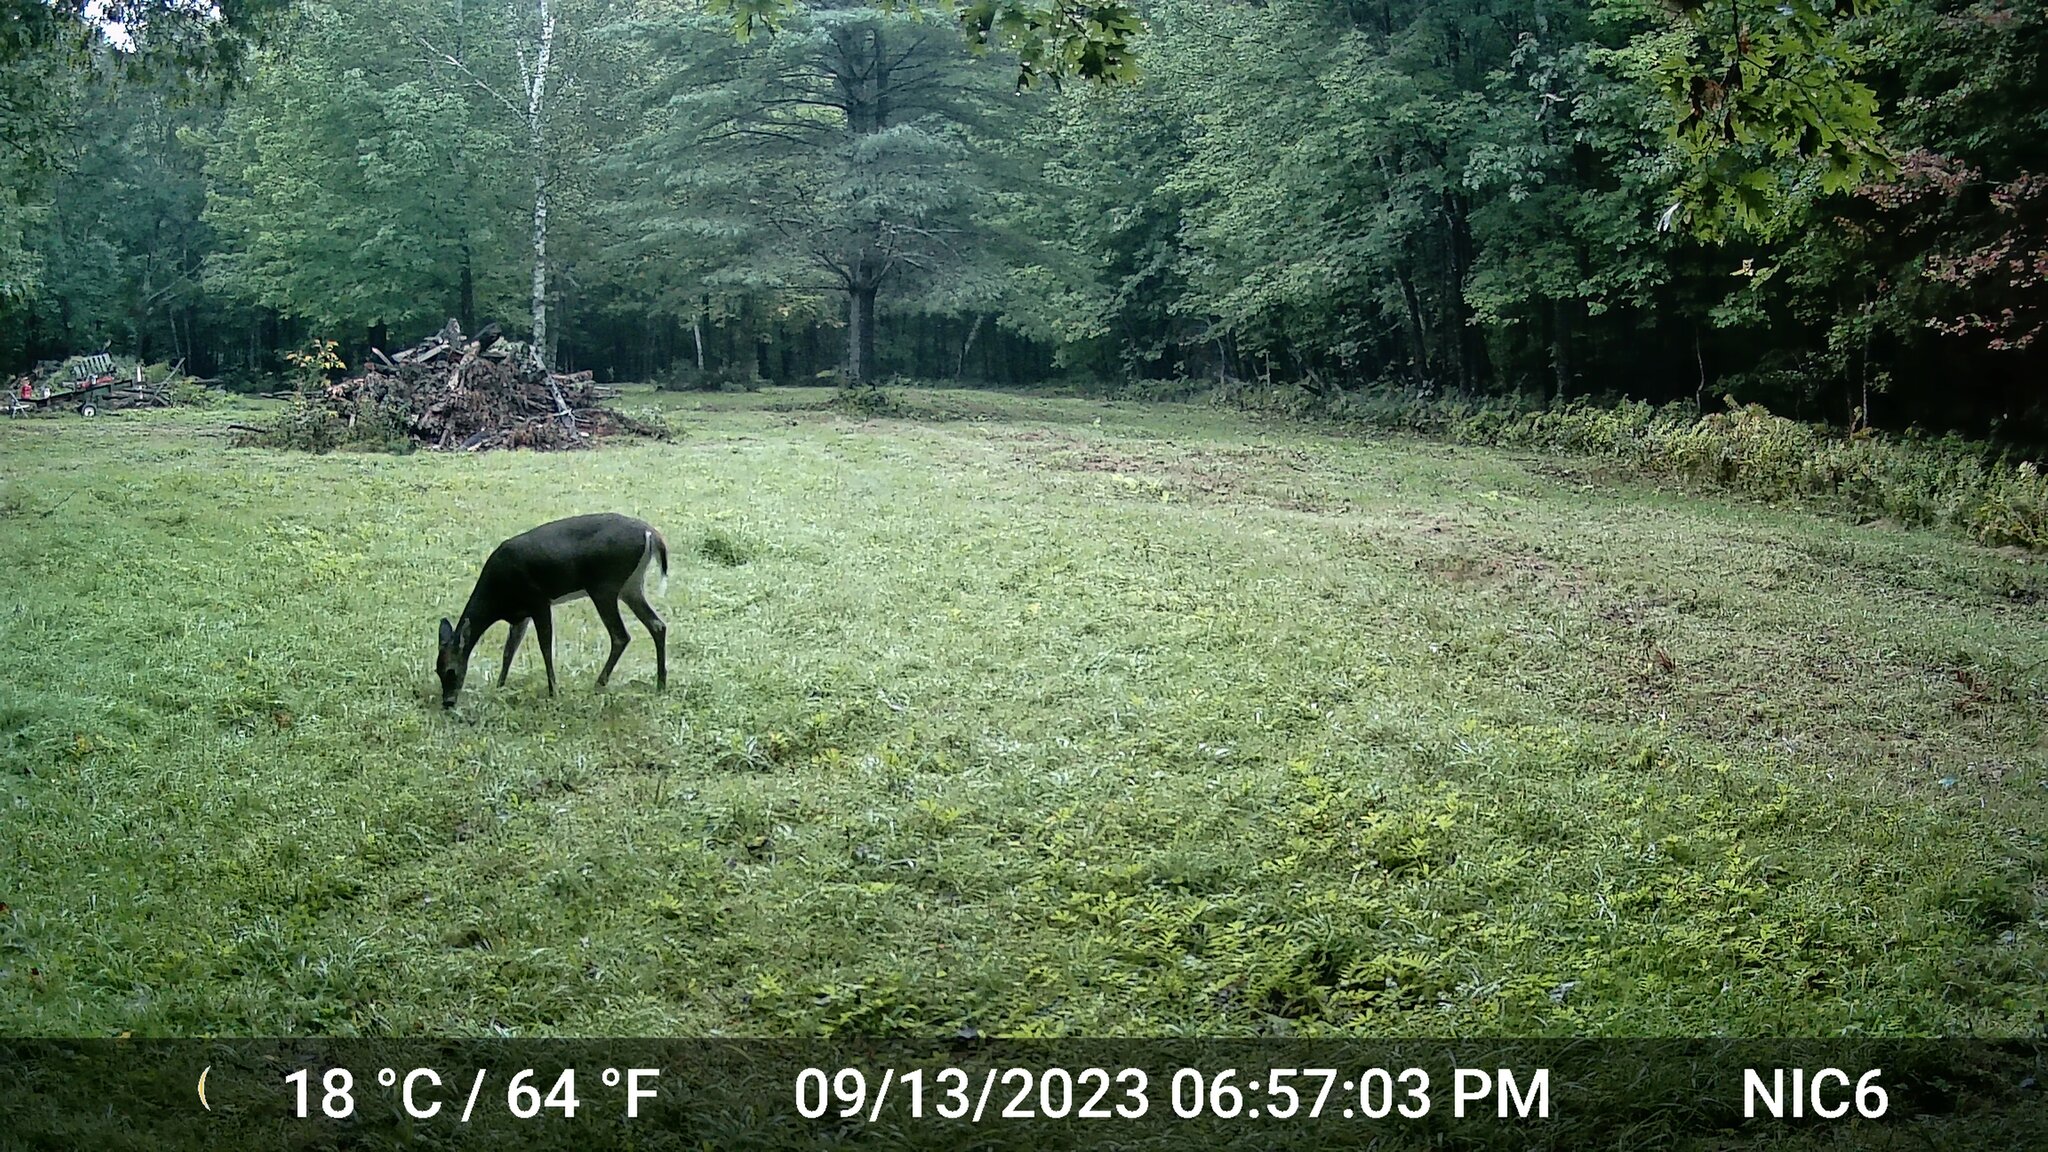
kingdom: Animalia
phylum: Chordata
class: Mammalia
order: Artiodactyla
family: Cervidae
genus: Odocoileus
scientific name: Odocoileus virginianus
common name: White-tailed deer
